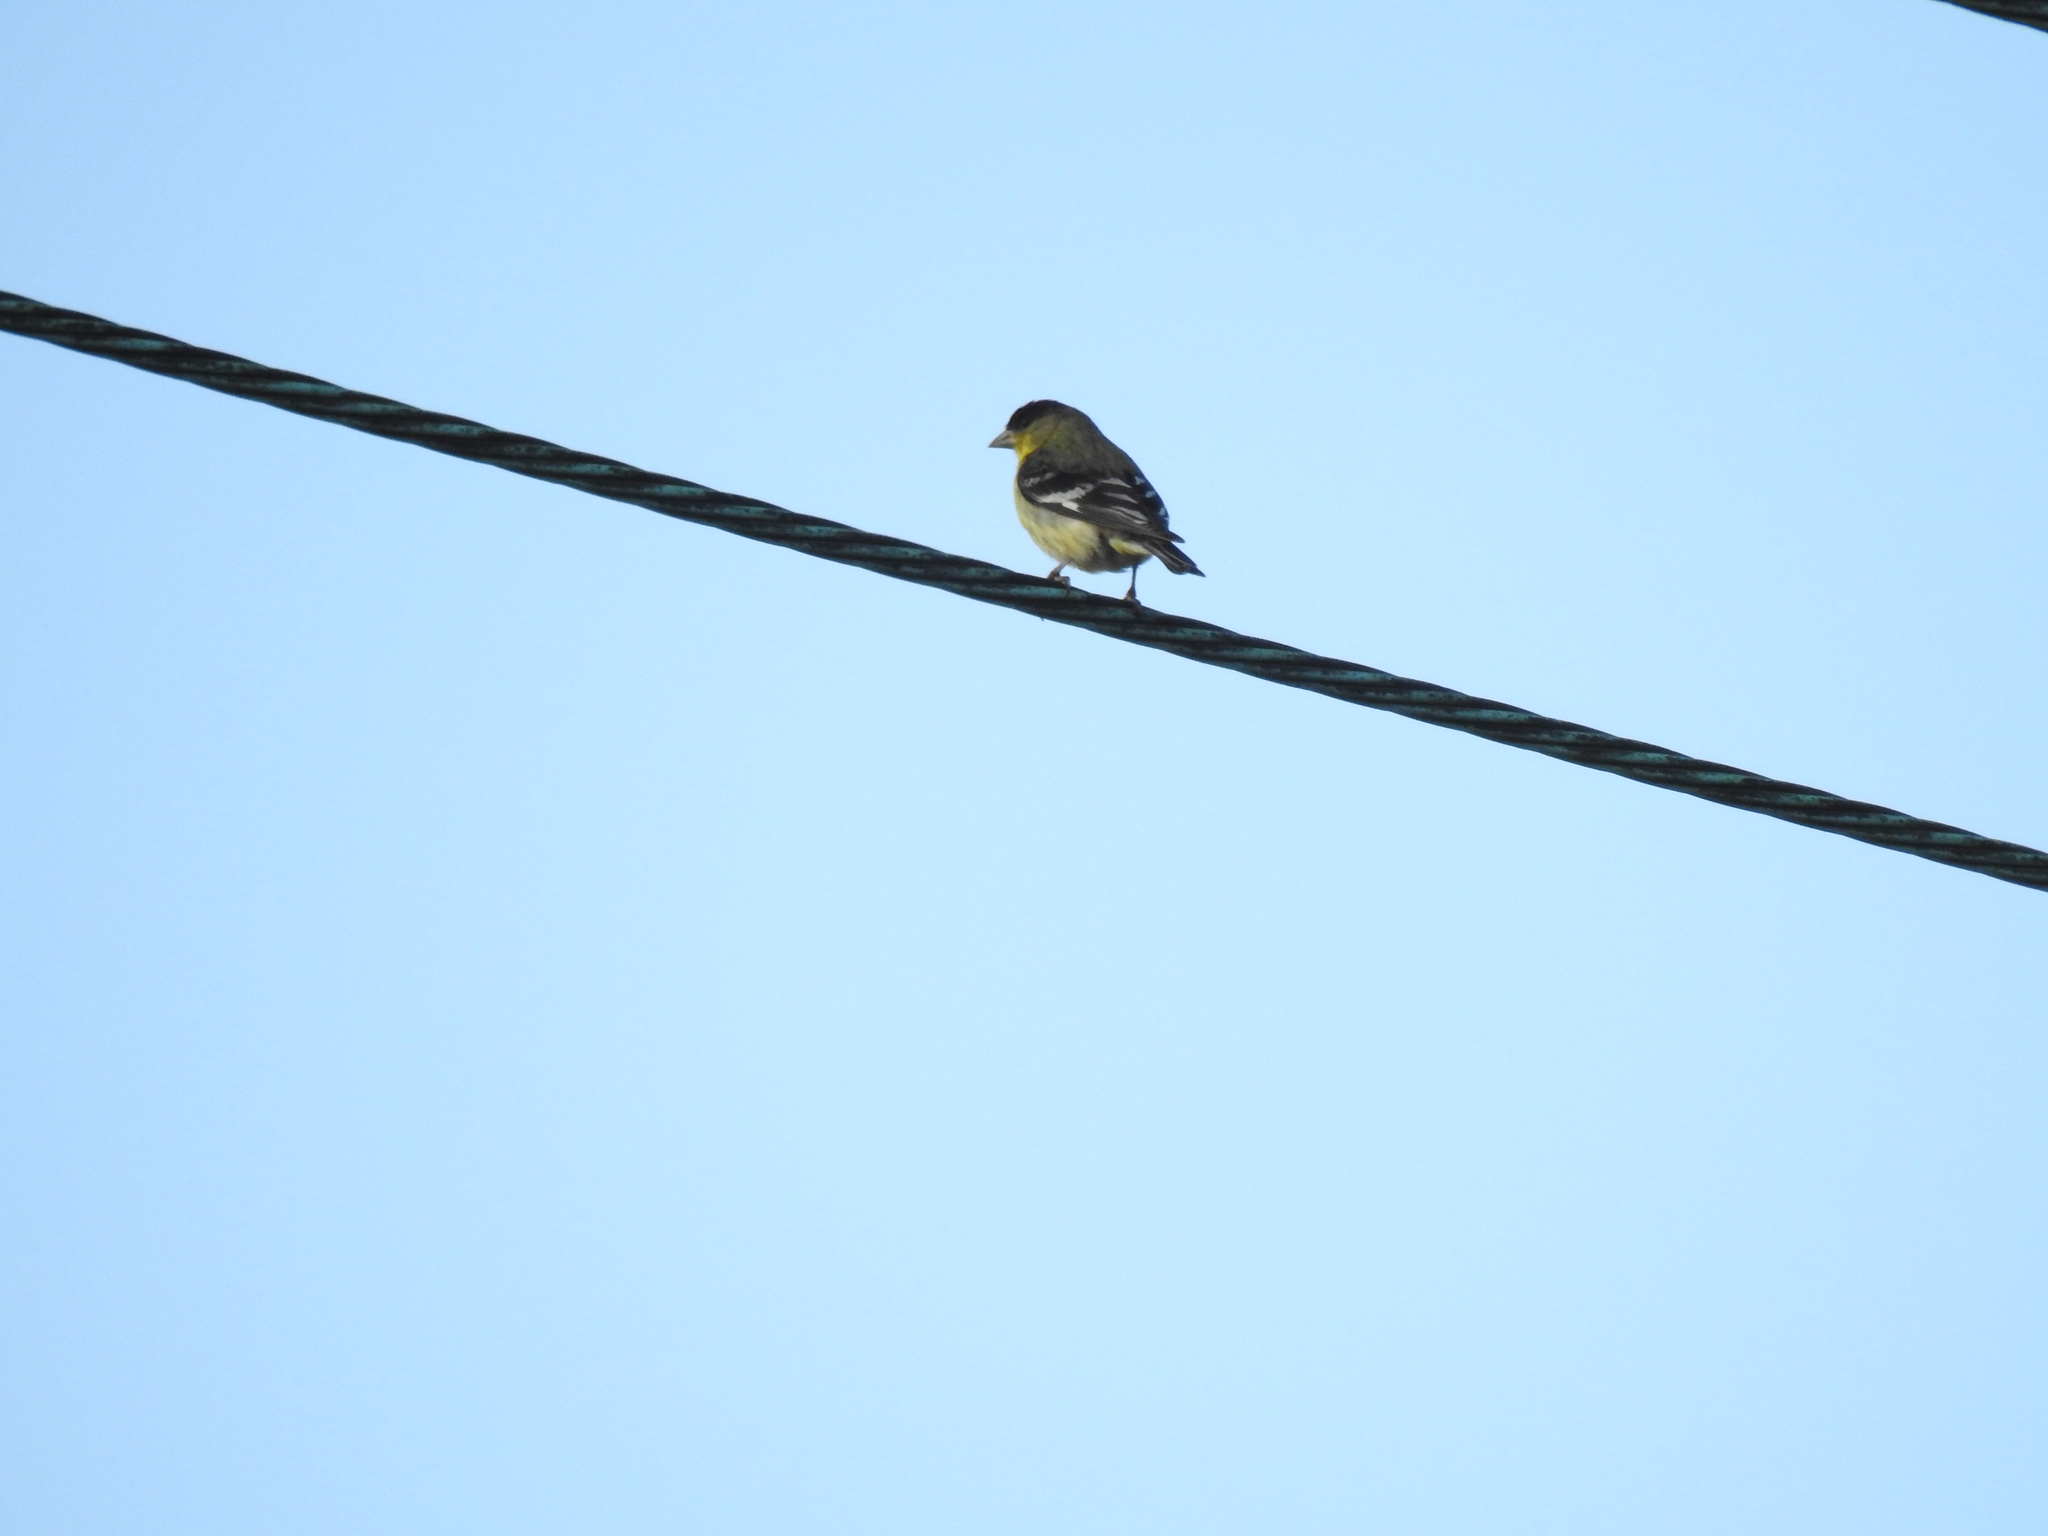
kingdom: Animalia
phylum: Chordata
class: Aves
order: Passeriformes
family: Fringillidae
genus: Spinus
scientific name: Spinus psaltria
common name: Lesser goldfinch
